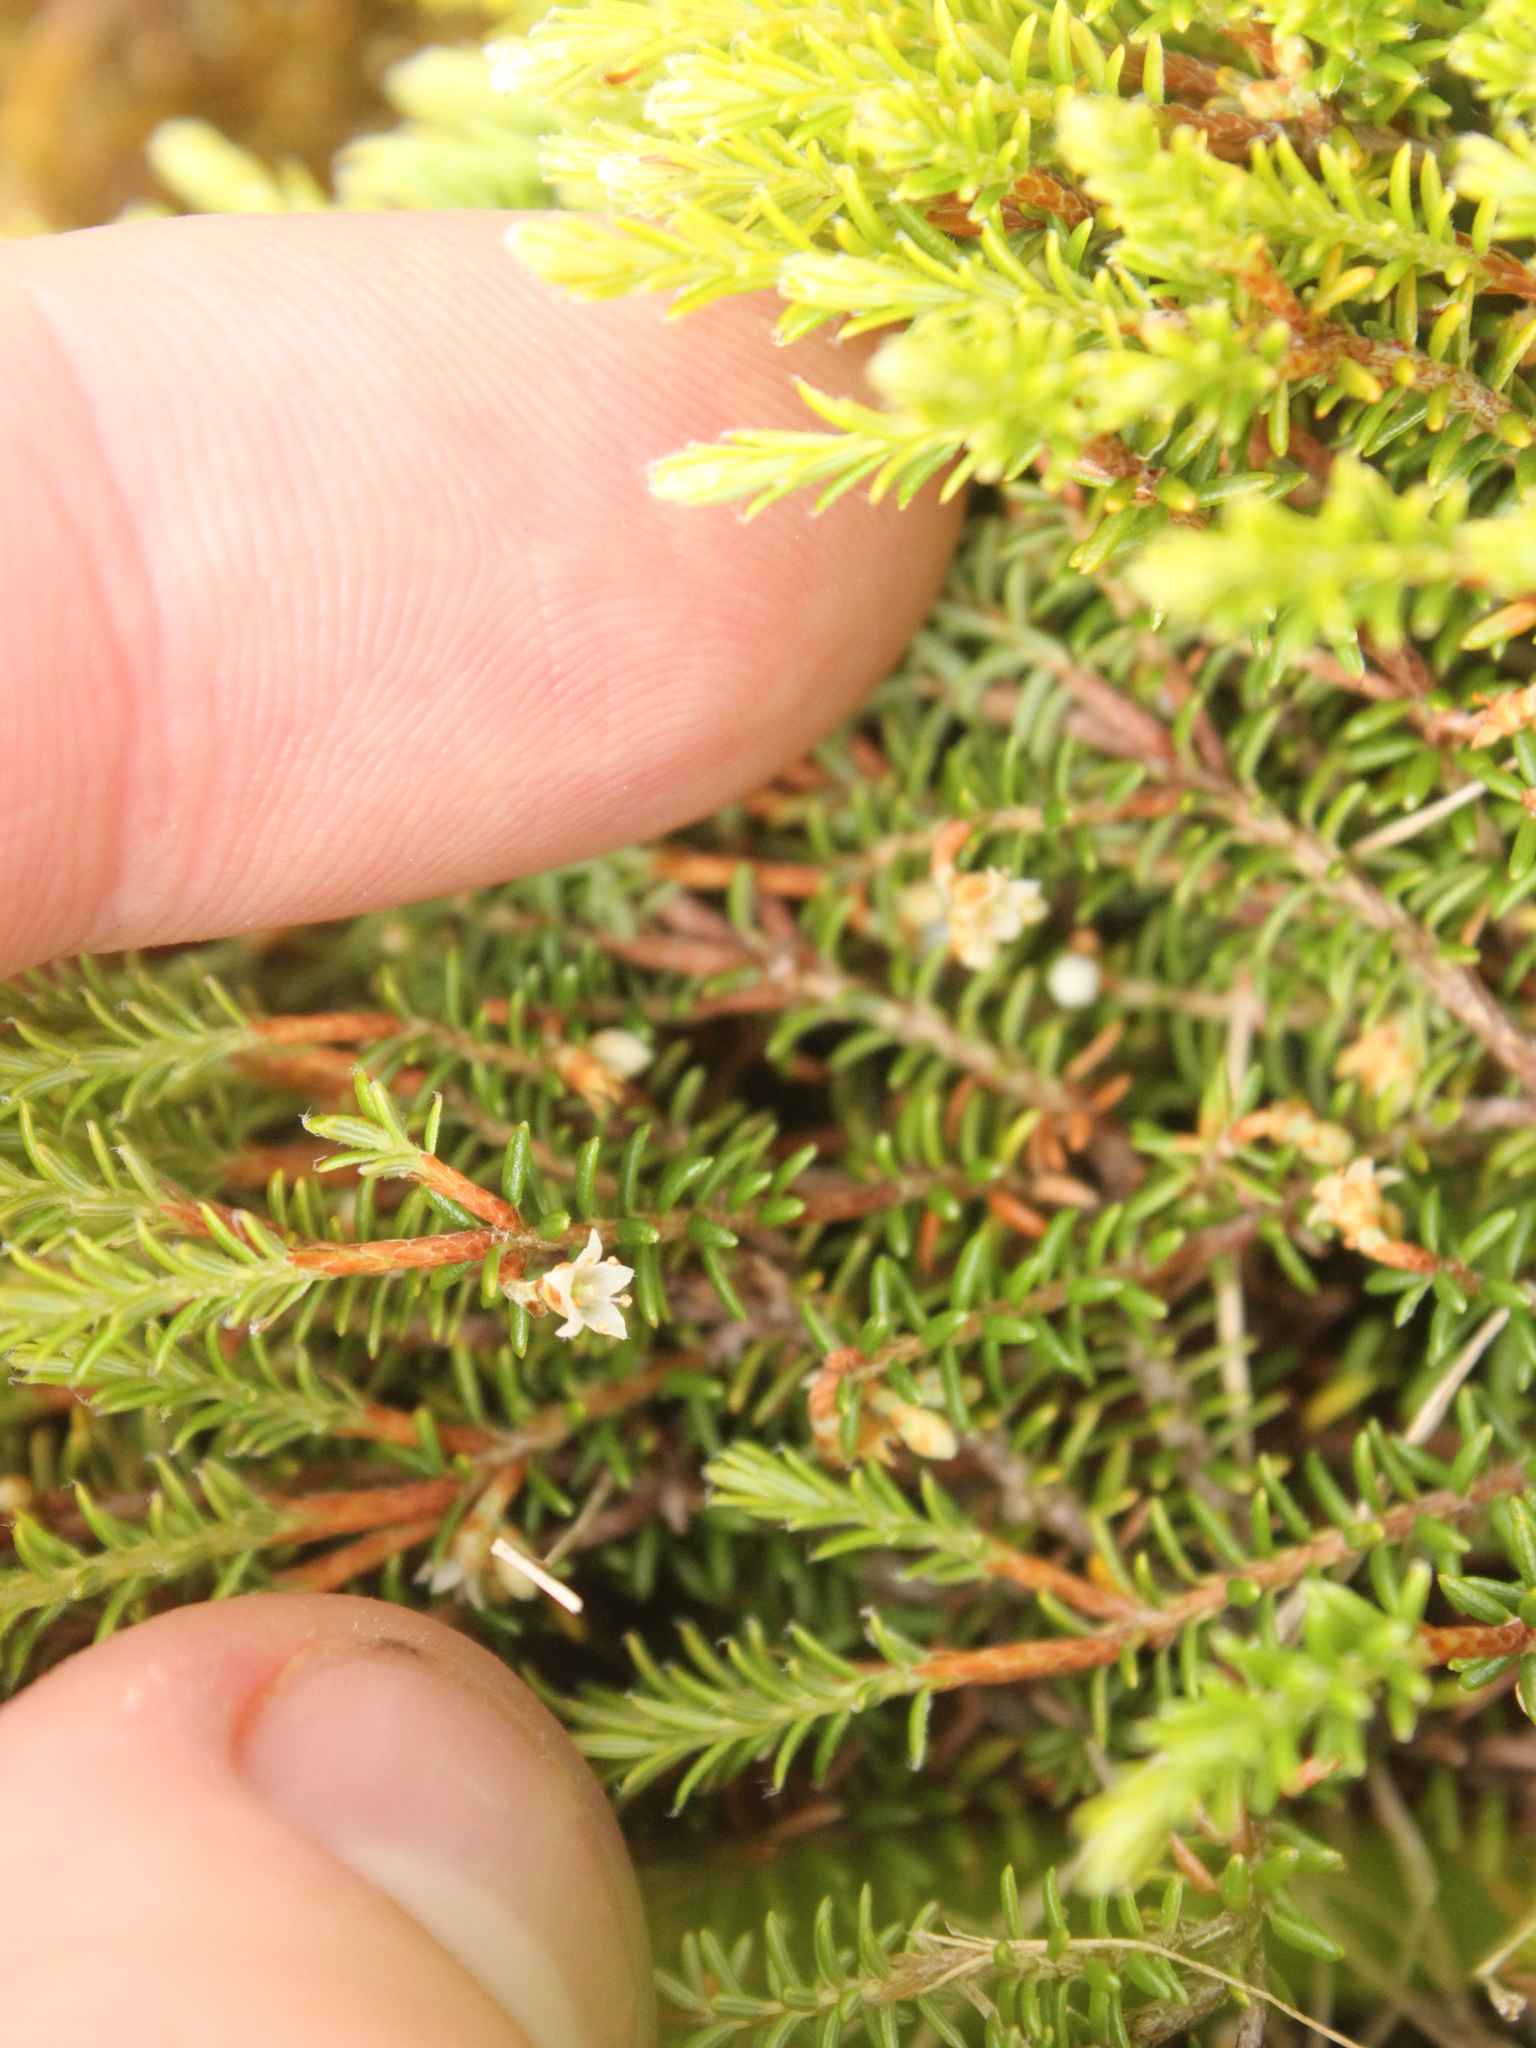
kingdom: Plantae
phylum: Tracheophyta
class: Magnoliopsida
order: Ericales
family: Ericaceae
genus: Androstoma
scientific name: Androstoma empetrifolia
